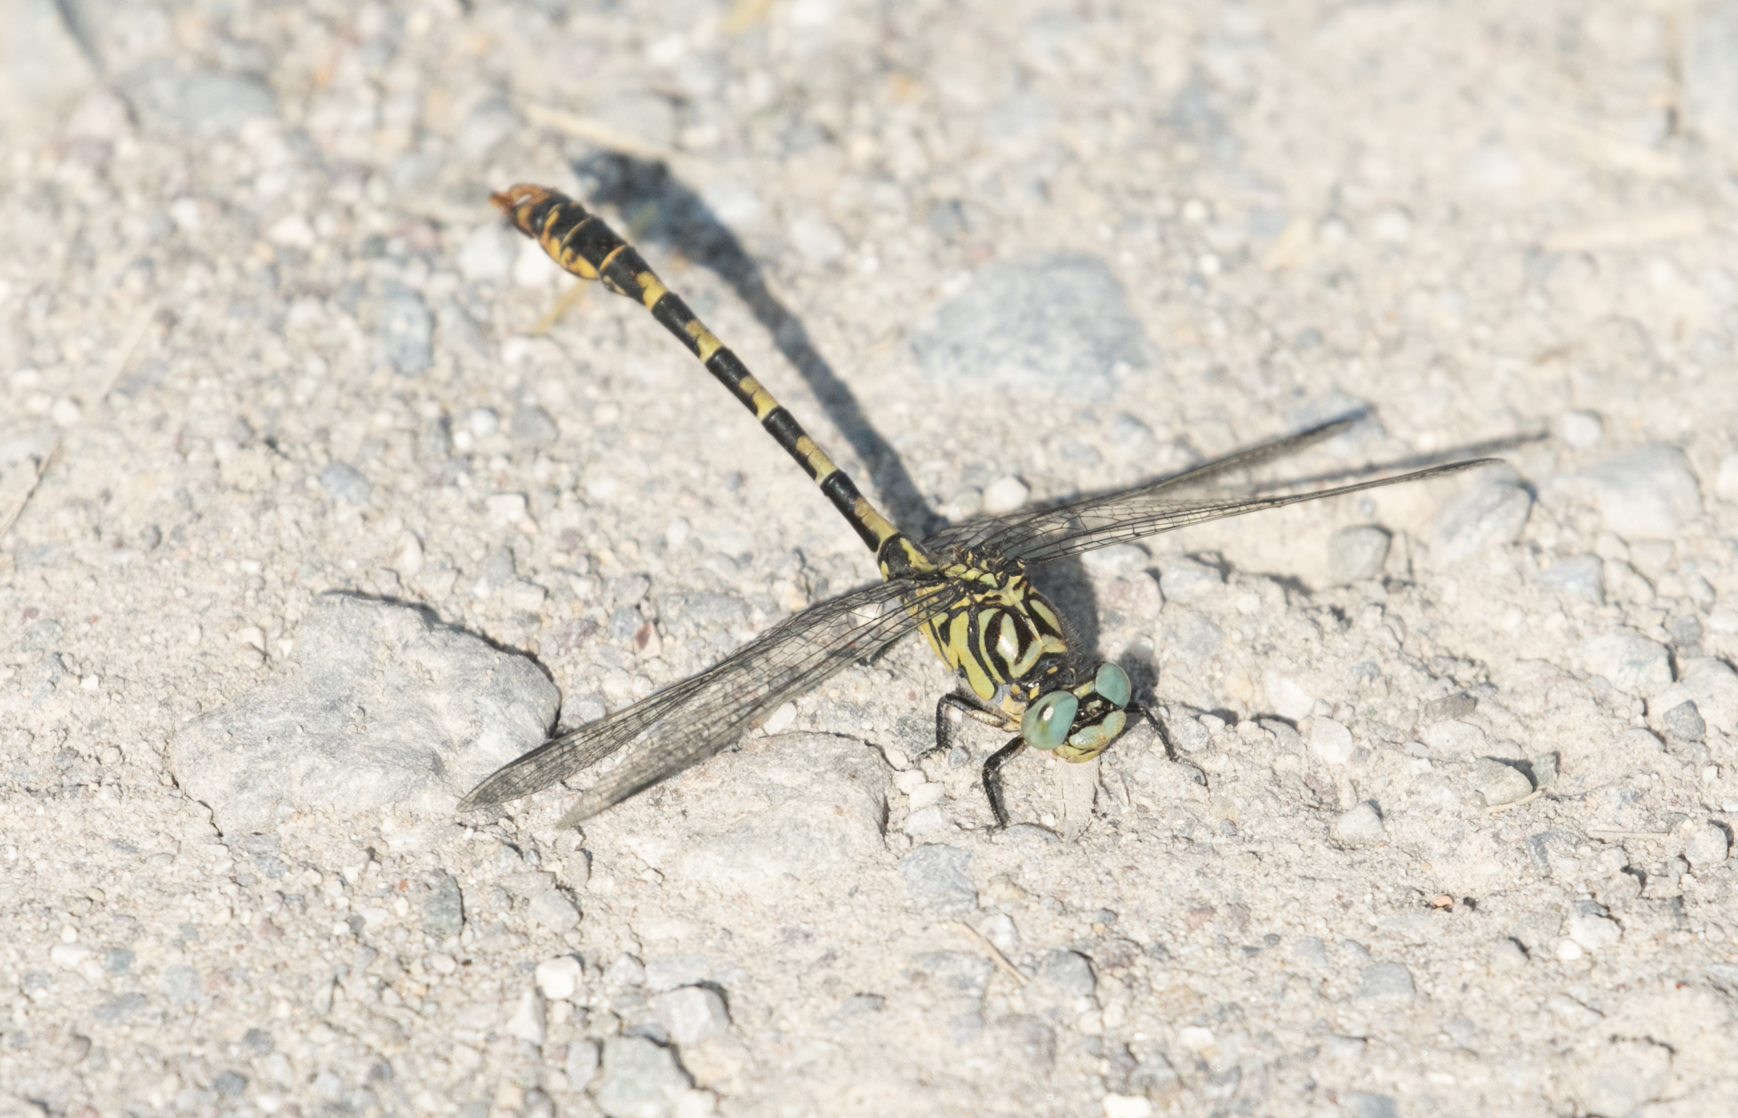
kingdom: Animalia
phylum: Arthropoda
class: Insecta
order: Odonata
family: Gomphidae
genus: Onychogomphus
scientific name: Onychogomphus forcipatus
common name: Small pincertail
